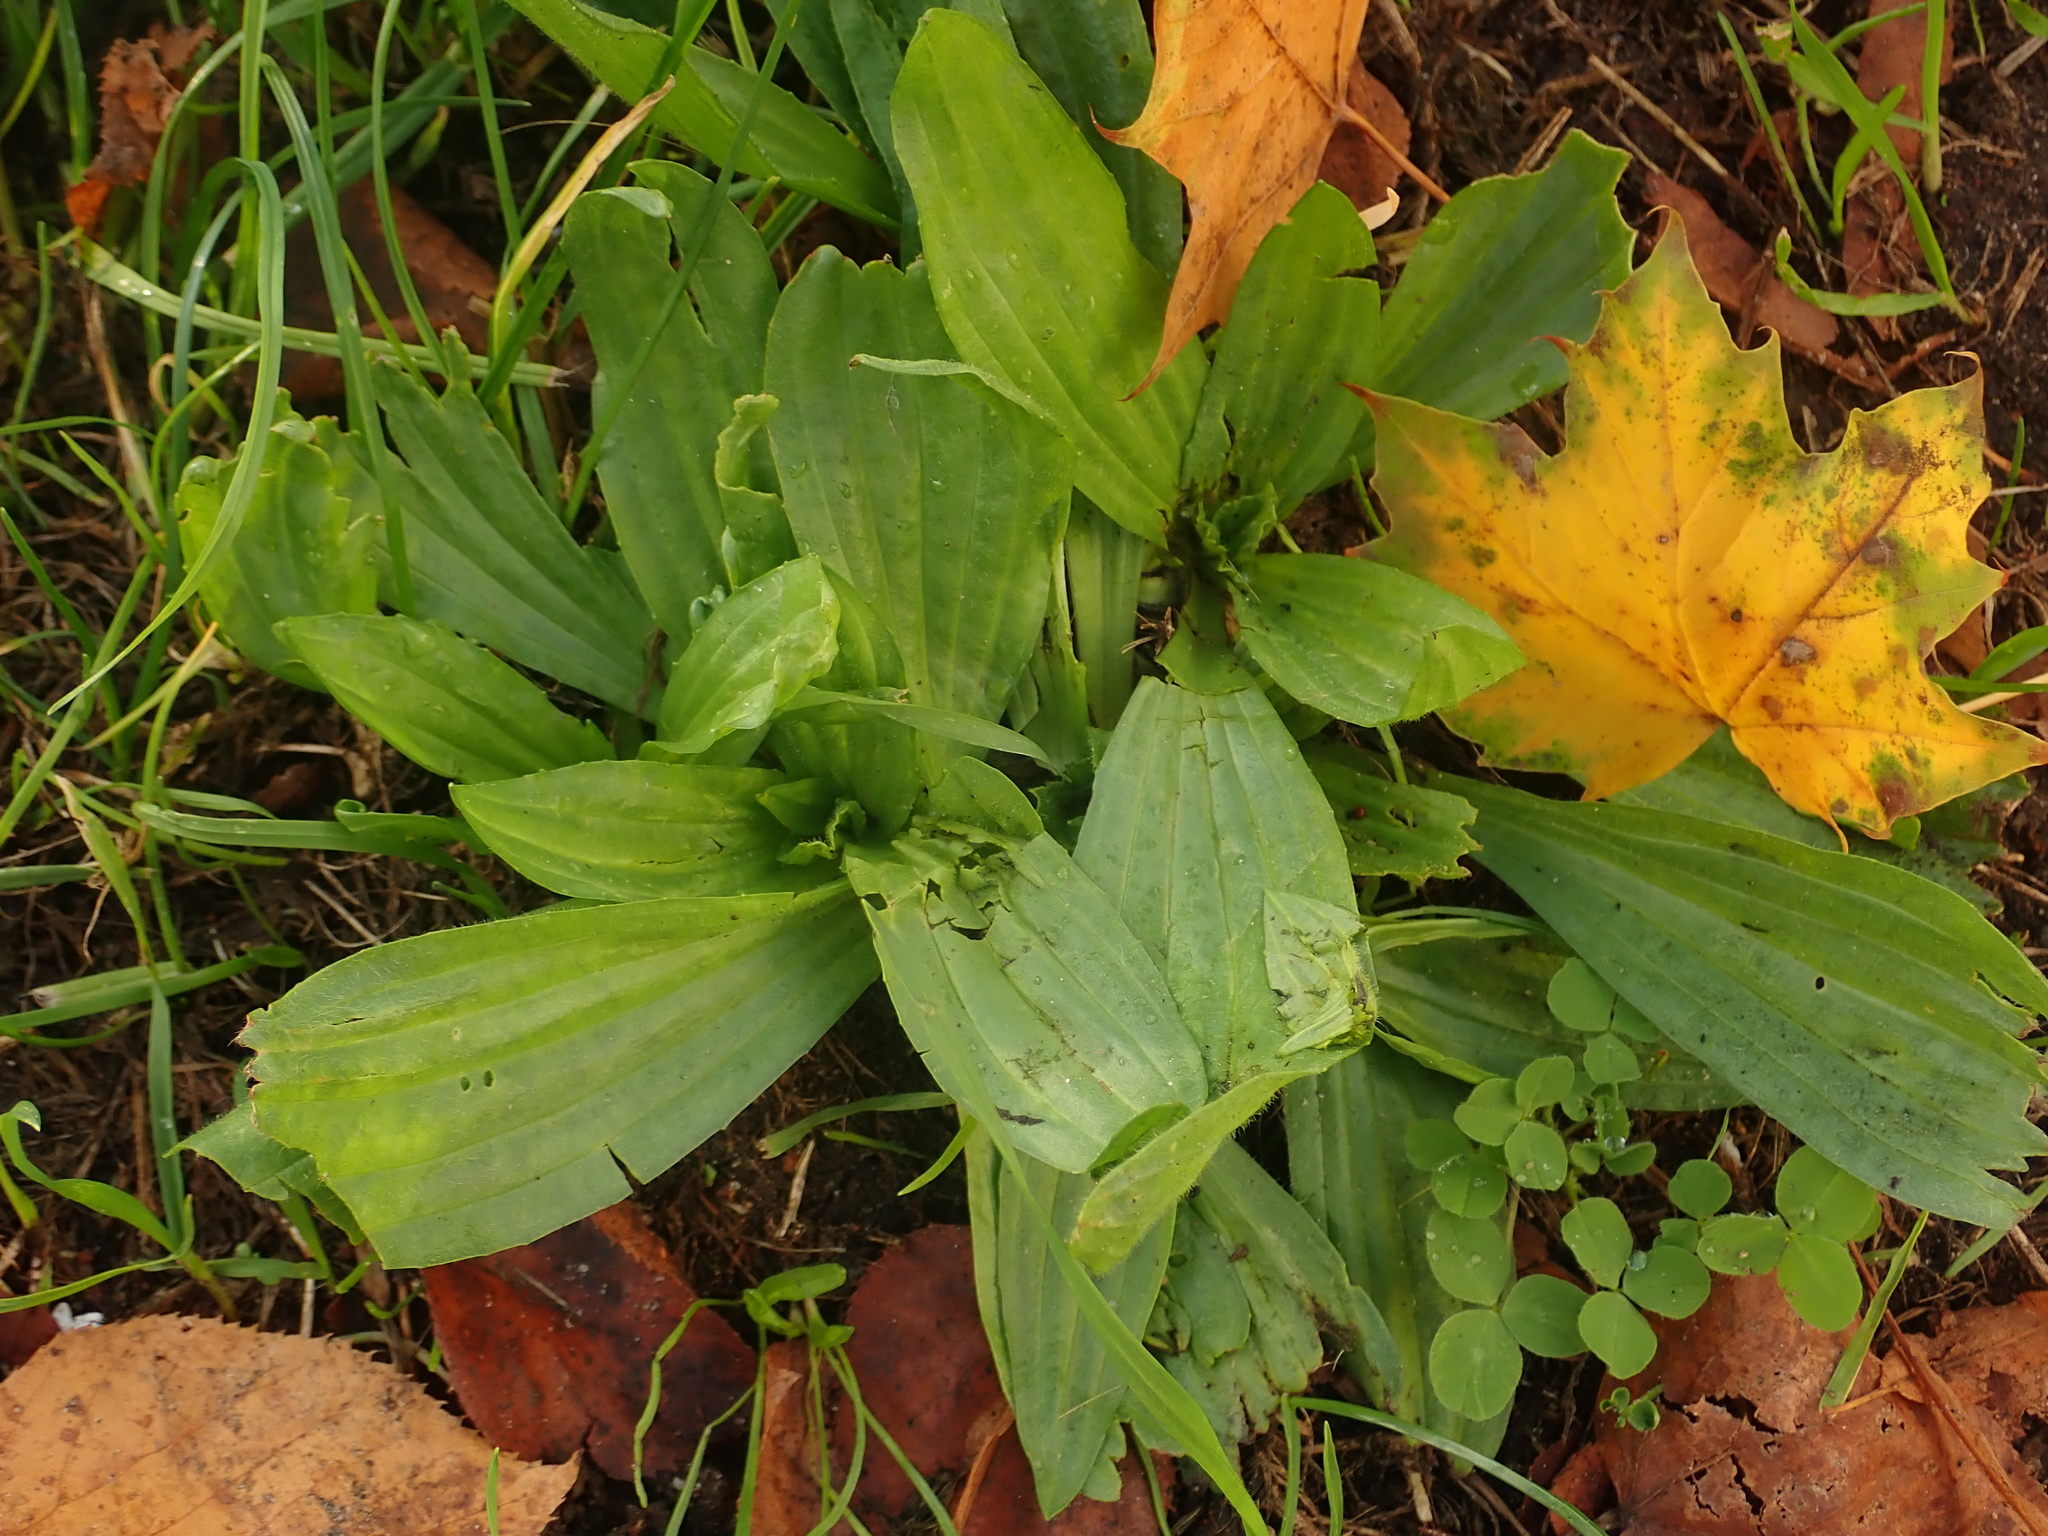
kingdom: Plantae
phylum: Tracheophyta
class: Magnoliopsida
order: Lamiales
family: Plantaginaceae
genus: Plantago
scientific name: Plantago lanceolata
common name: Ribwort plantain
